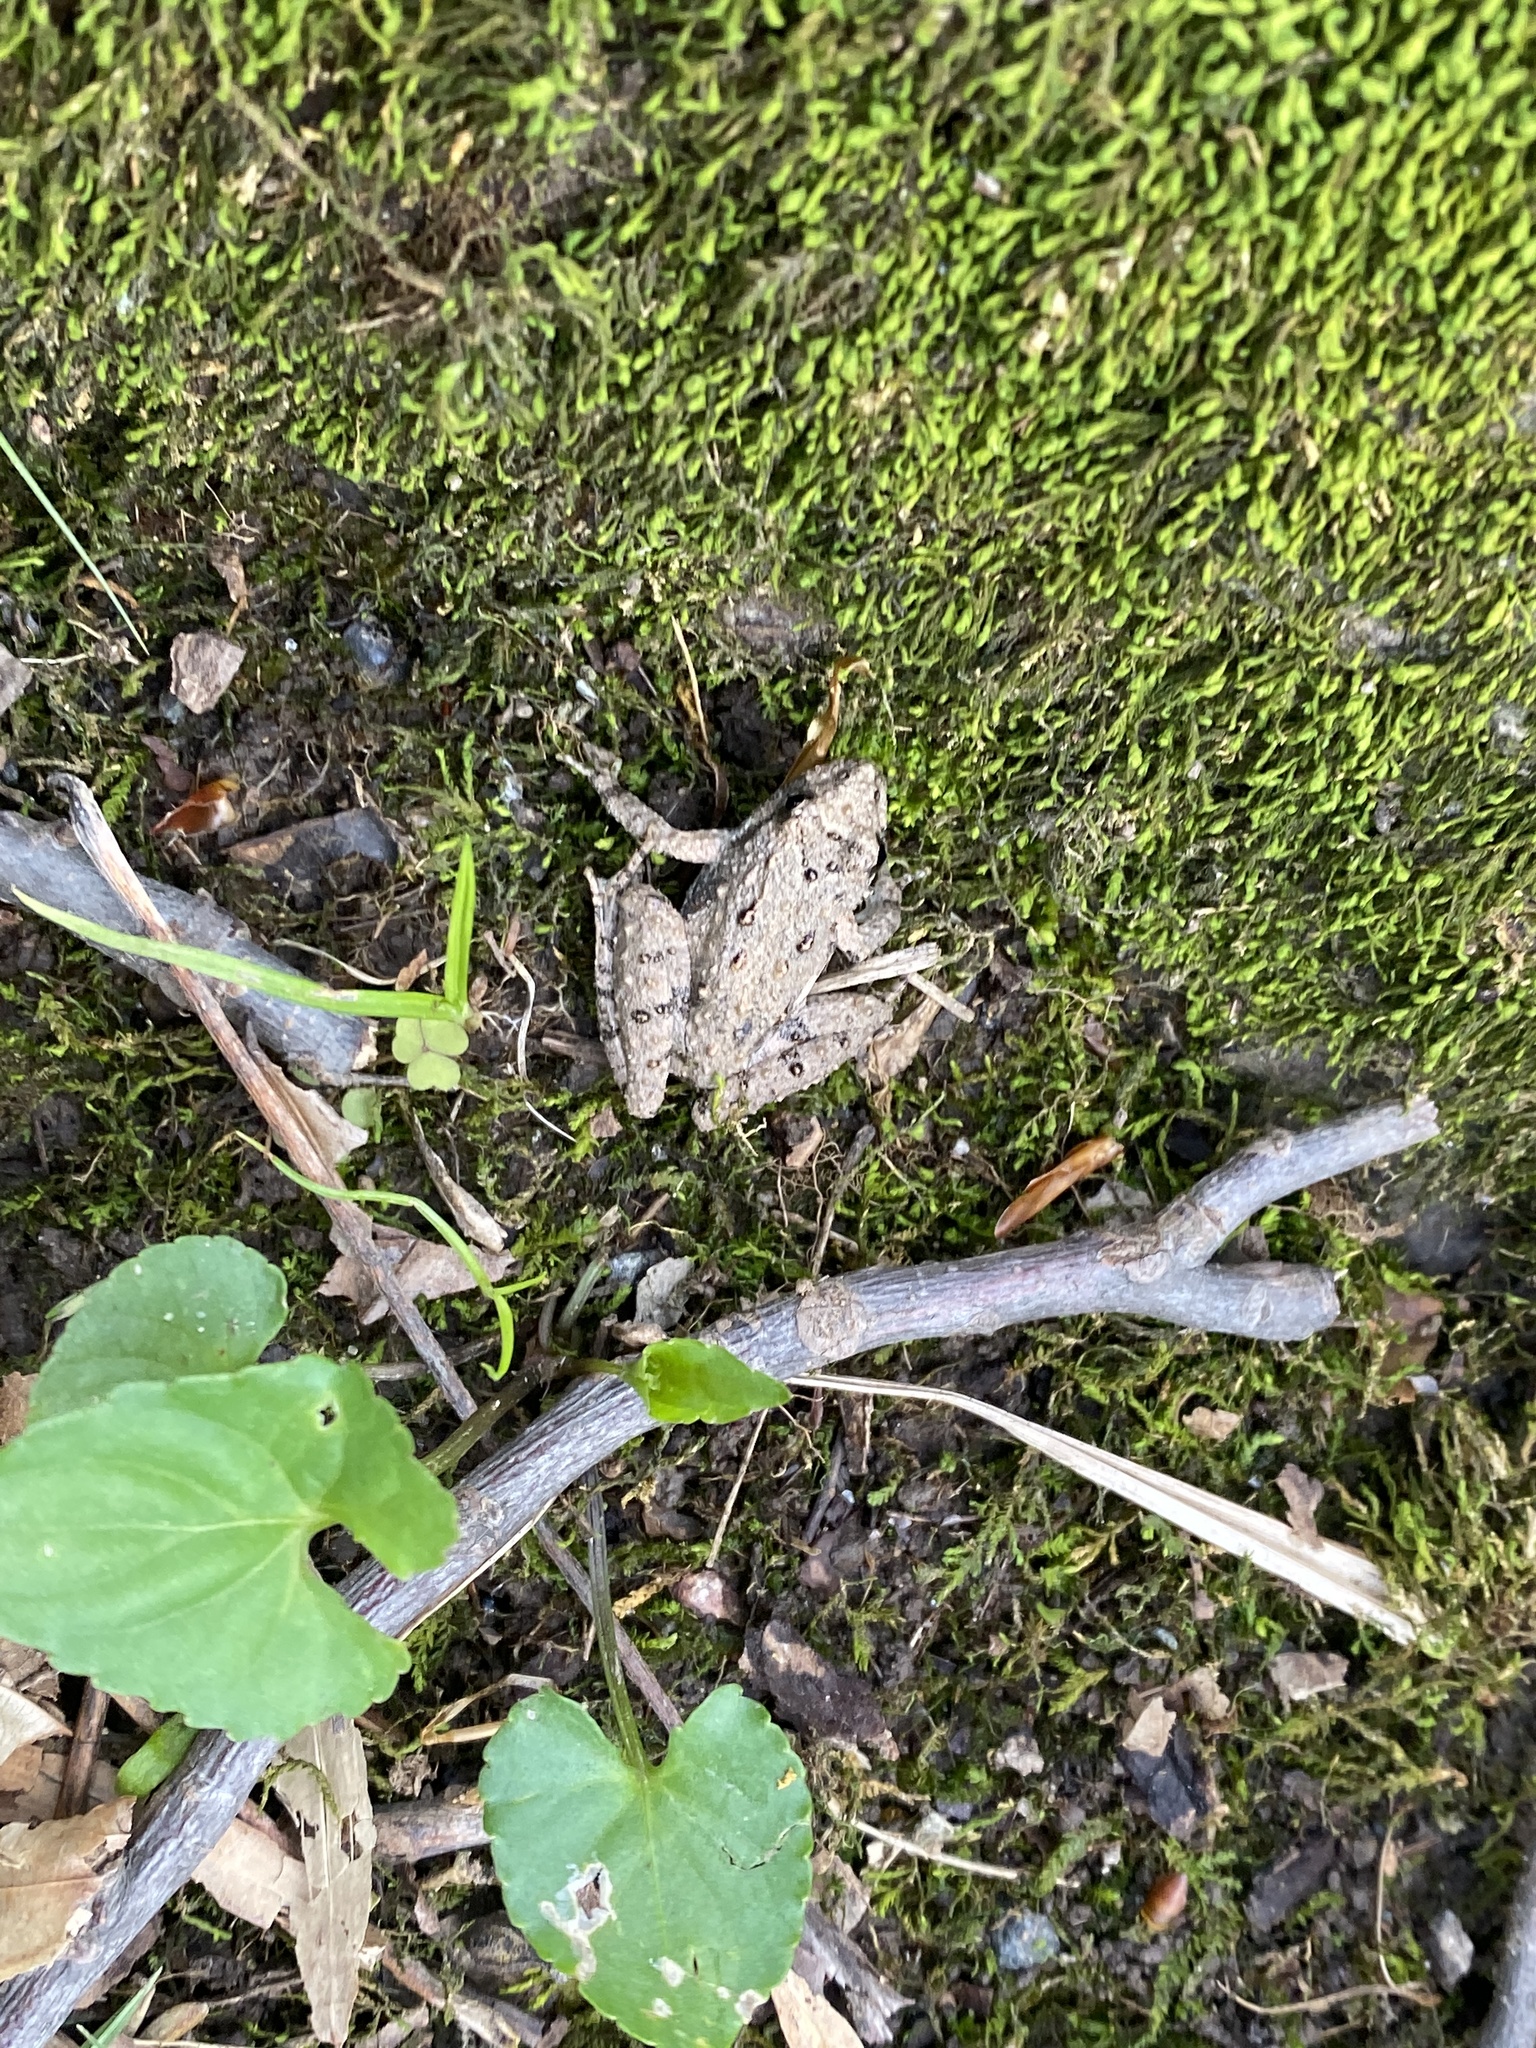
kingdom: Animalia
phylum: Chordata
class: Amphibia
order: Anura
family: Hylidae
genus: Acris
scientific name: Acris crepitans
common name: Northern cricket frog
